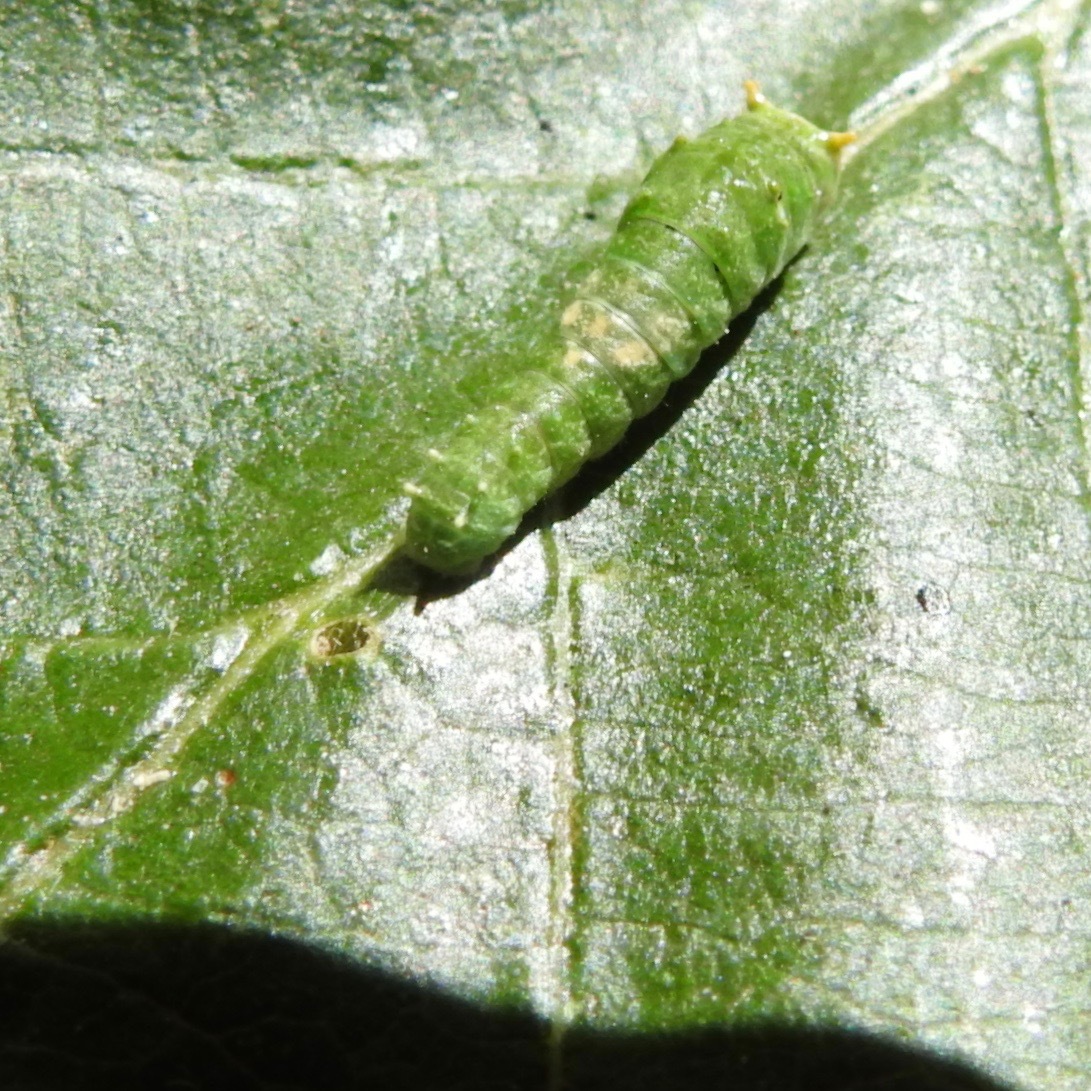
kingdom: Animalia
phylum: Arthropoda
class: Insecta
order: Lepidoptera
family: Papilionidae
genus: Papilio
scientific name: Papilio rutulus
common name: Western tiger swallowtail
